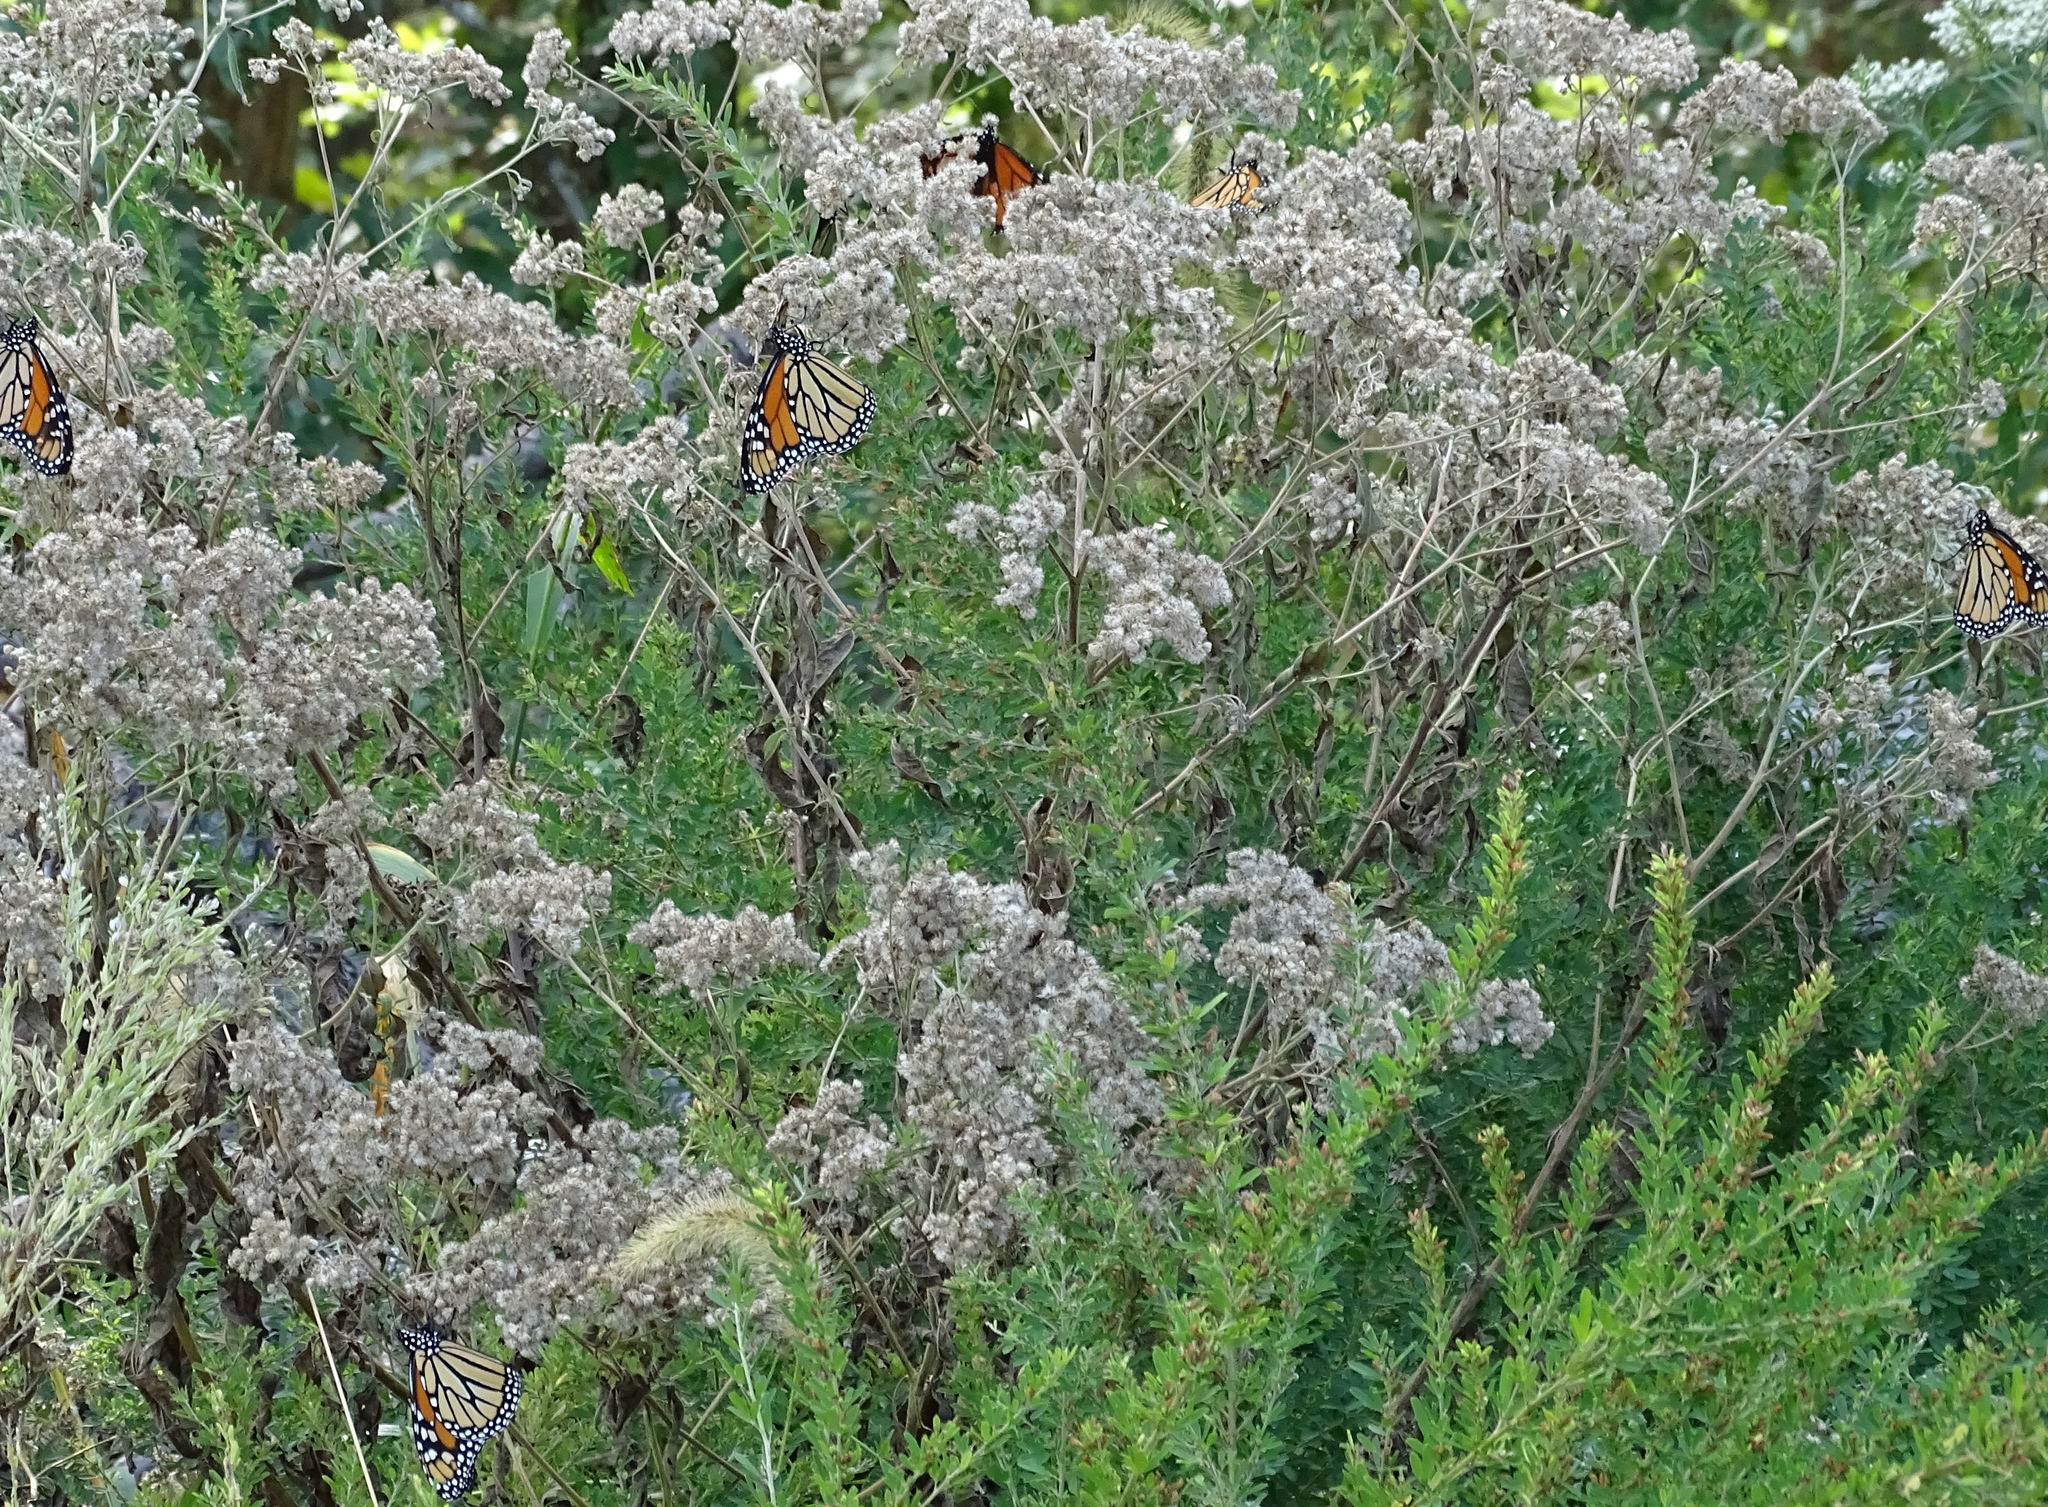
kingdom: Animalia
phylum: Arthropoda
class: Insecta
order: Lepidoptera
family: Nymphalidae
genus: Danaus
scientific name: Danaus plexippus
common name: Monarch
